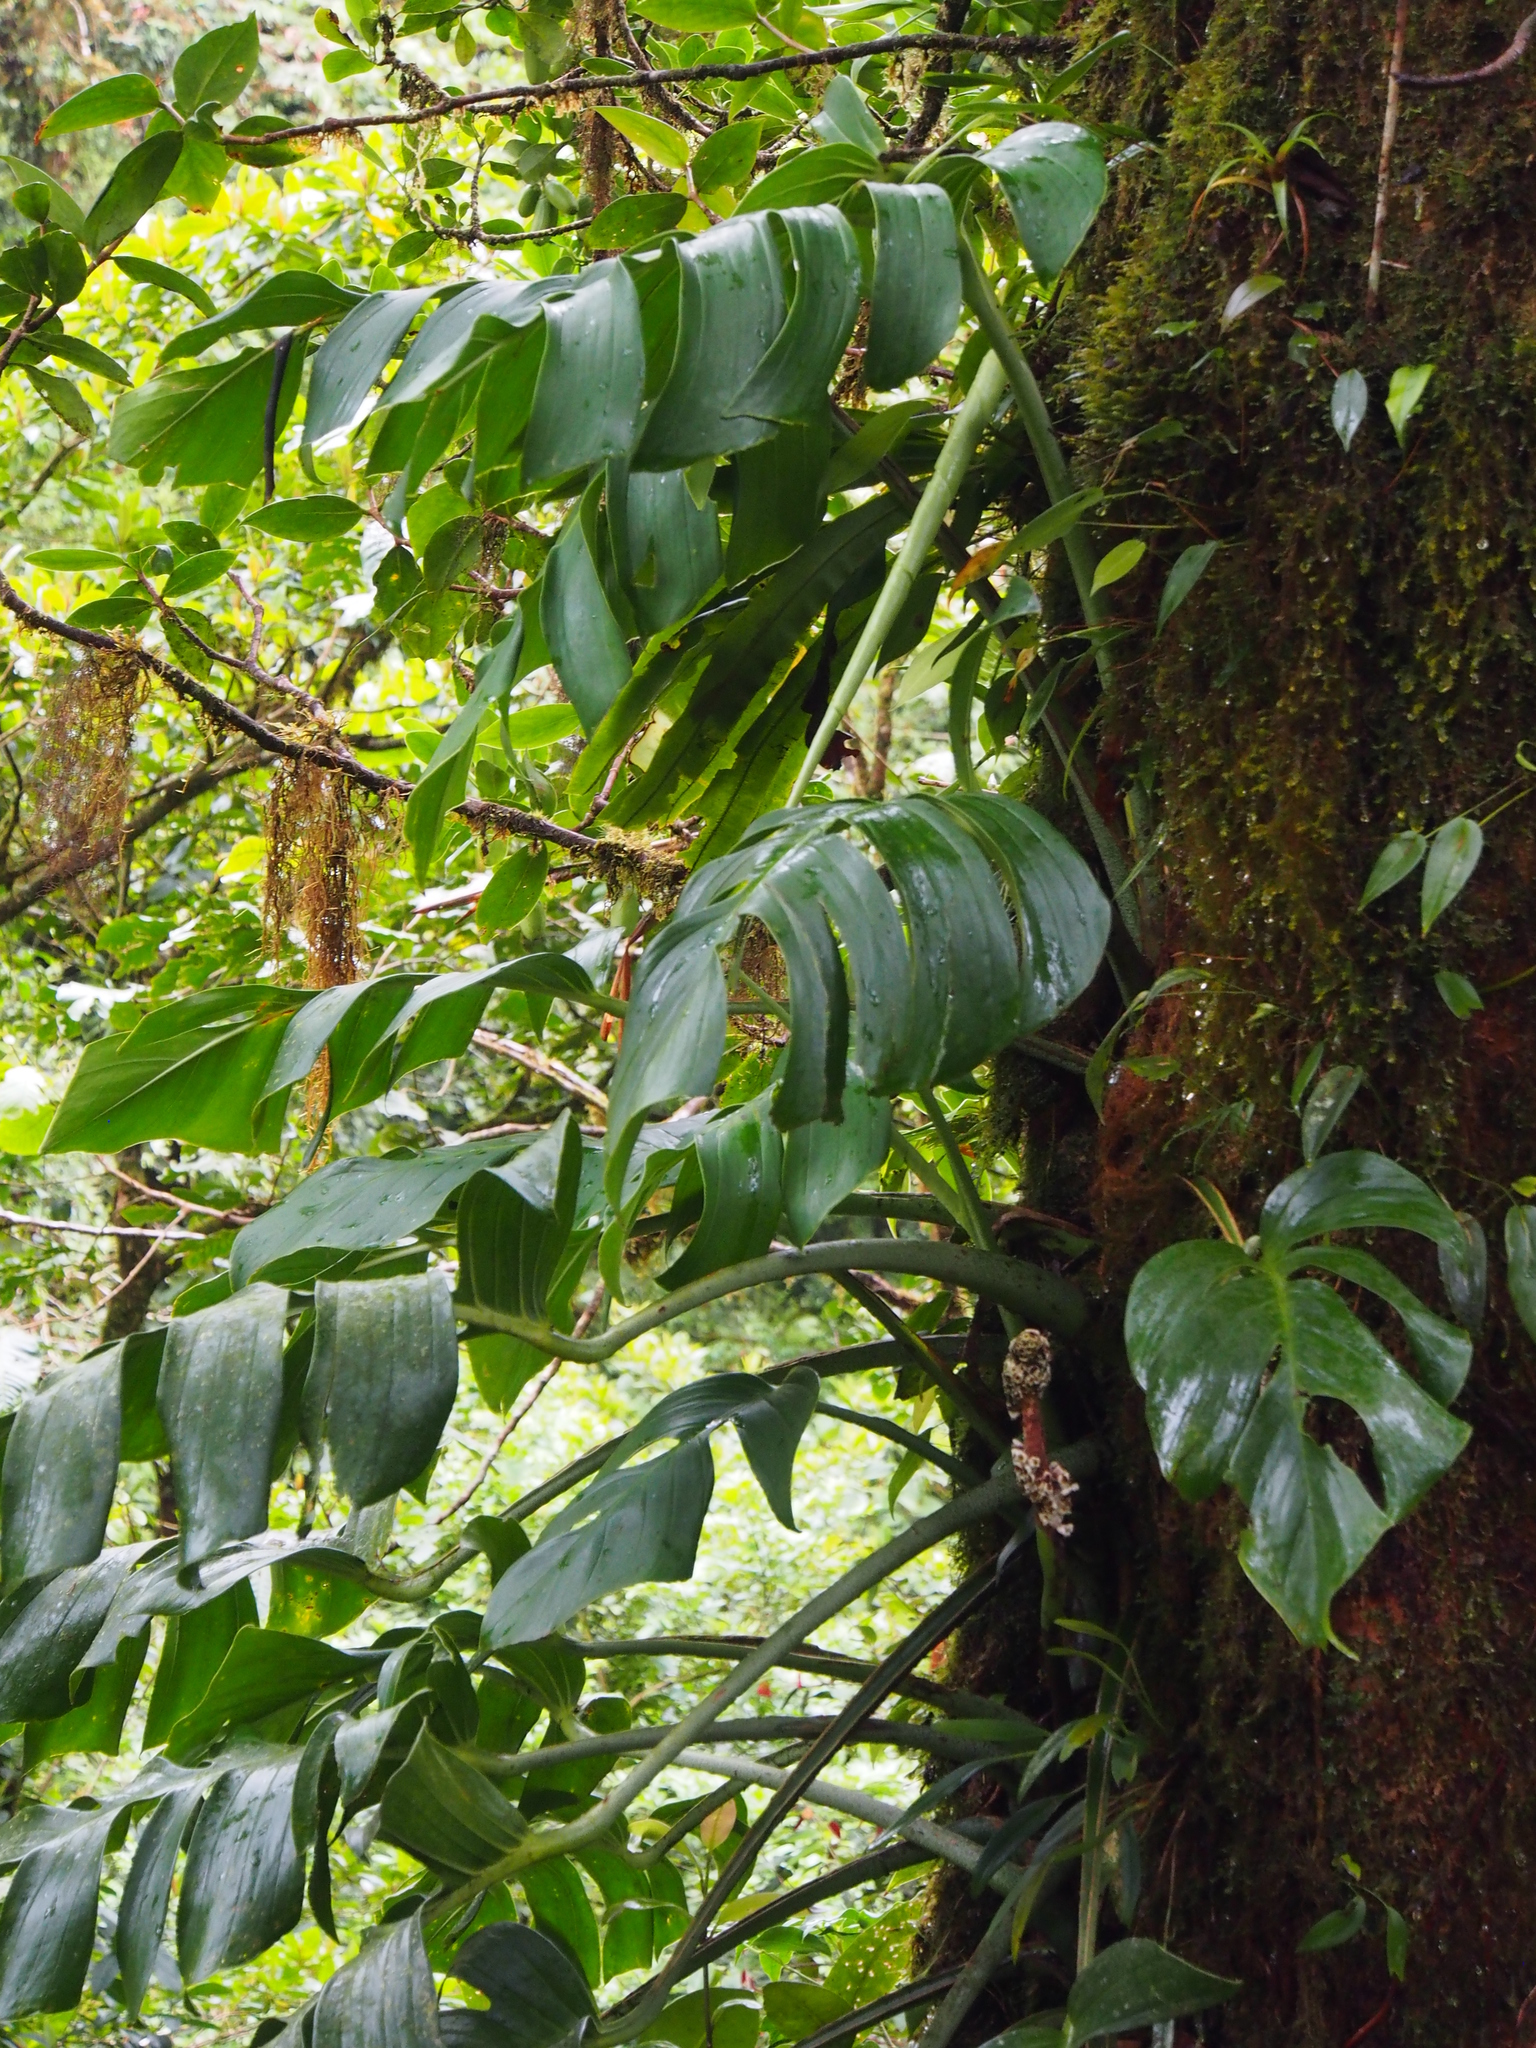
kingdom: Plantae
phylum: Tracheophyta
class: Liliopsida
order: Alismatales
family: Araceae
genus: Monstera
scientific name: Monstera monteverdensis
